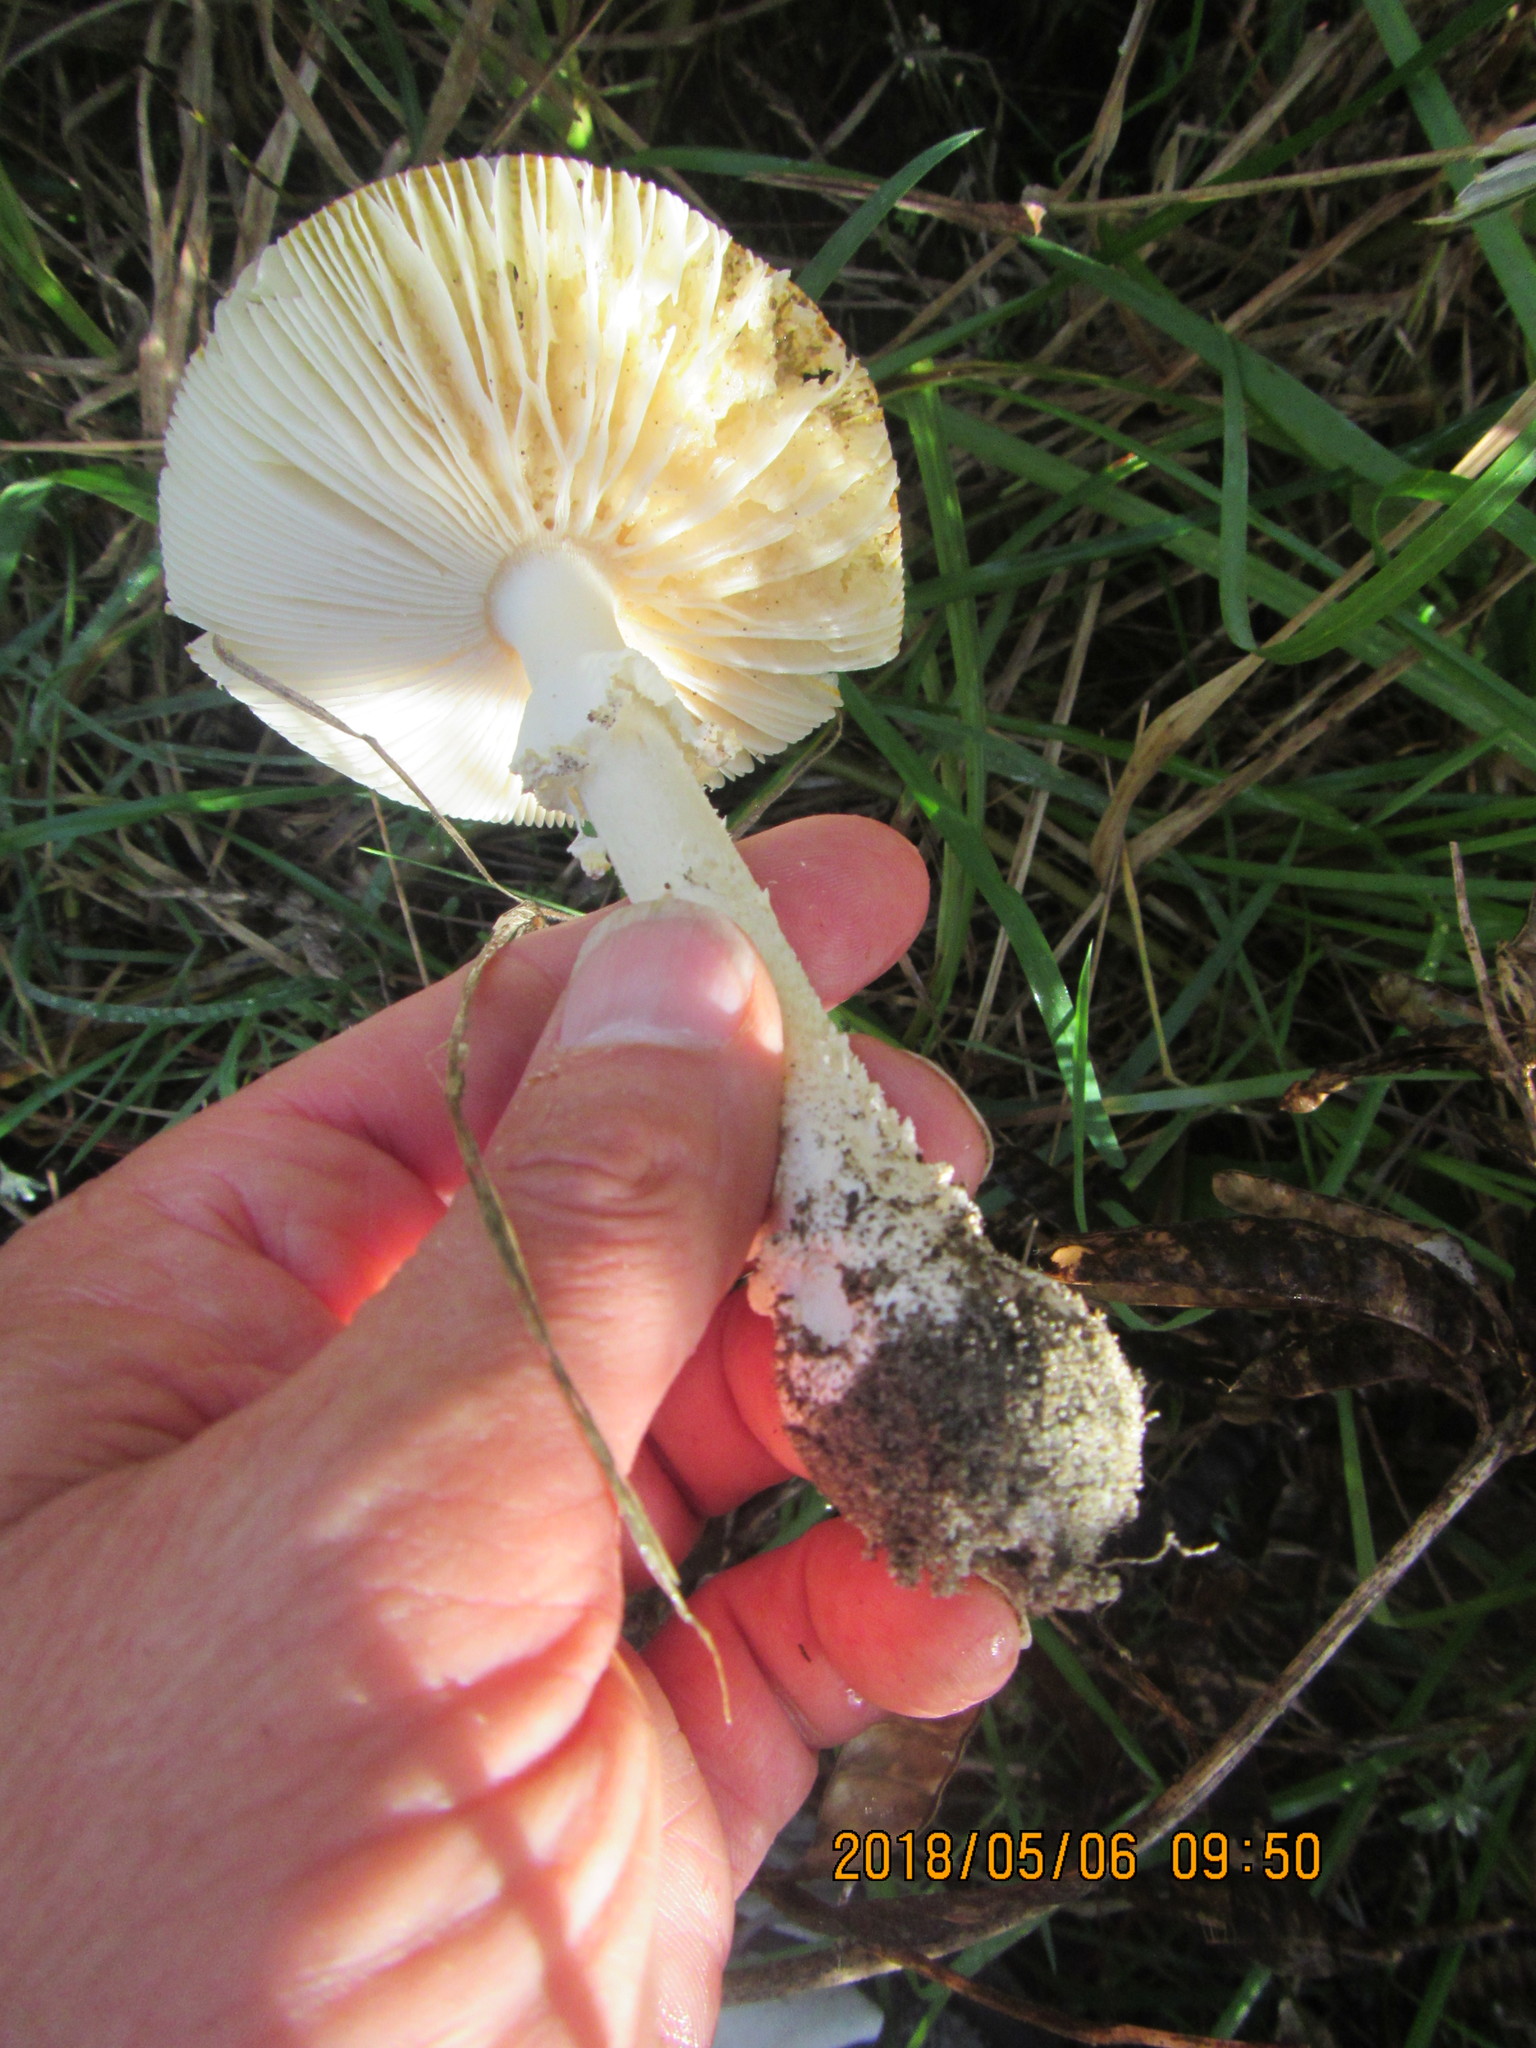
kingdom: Fungi
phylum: Basidiomycota
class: Agaricomycetes
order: Agaricales
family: Amanitaceae
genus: Amanita
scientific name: Amanita muscaria
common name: Fly agaric
